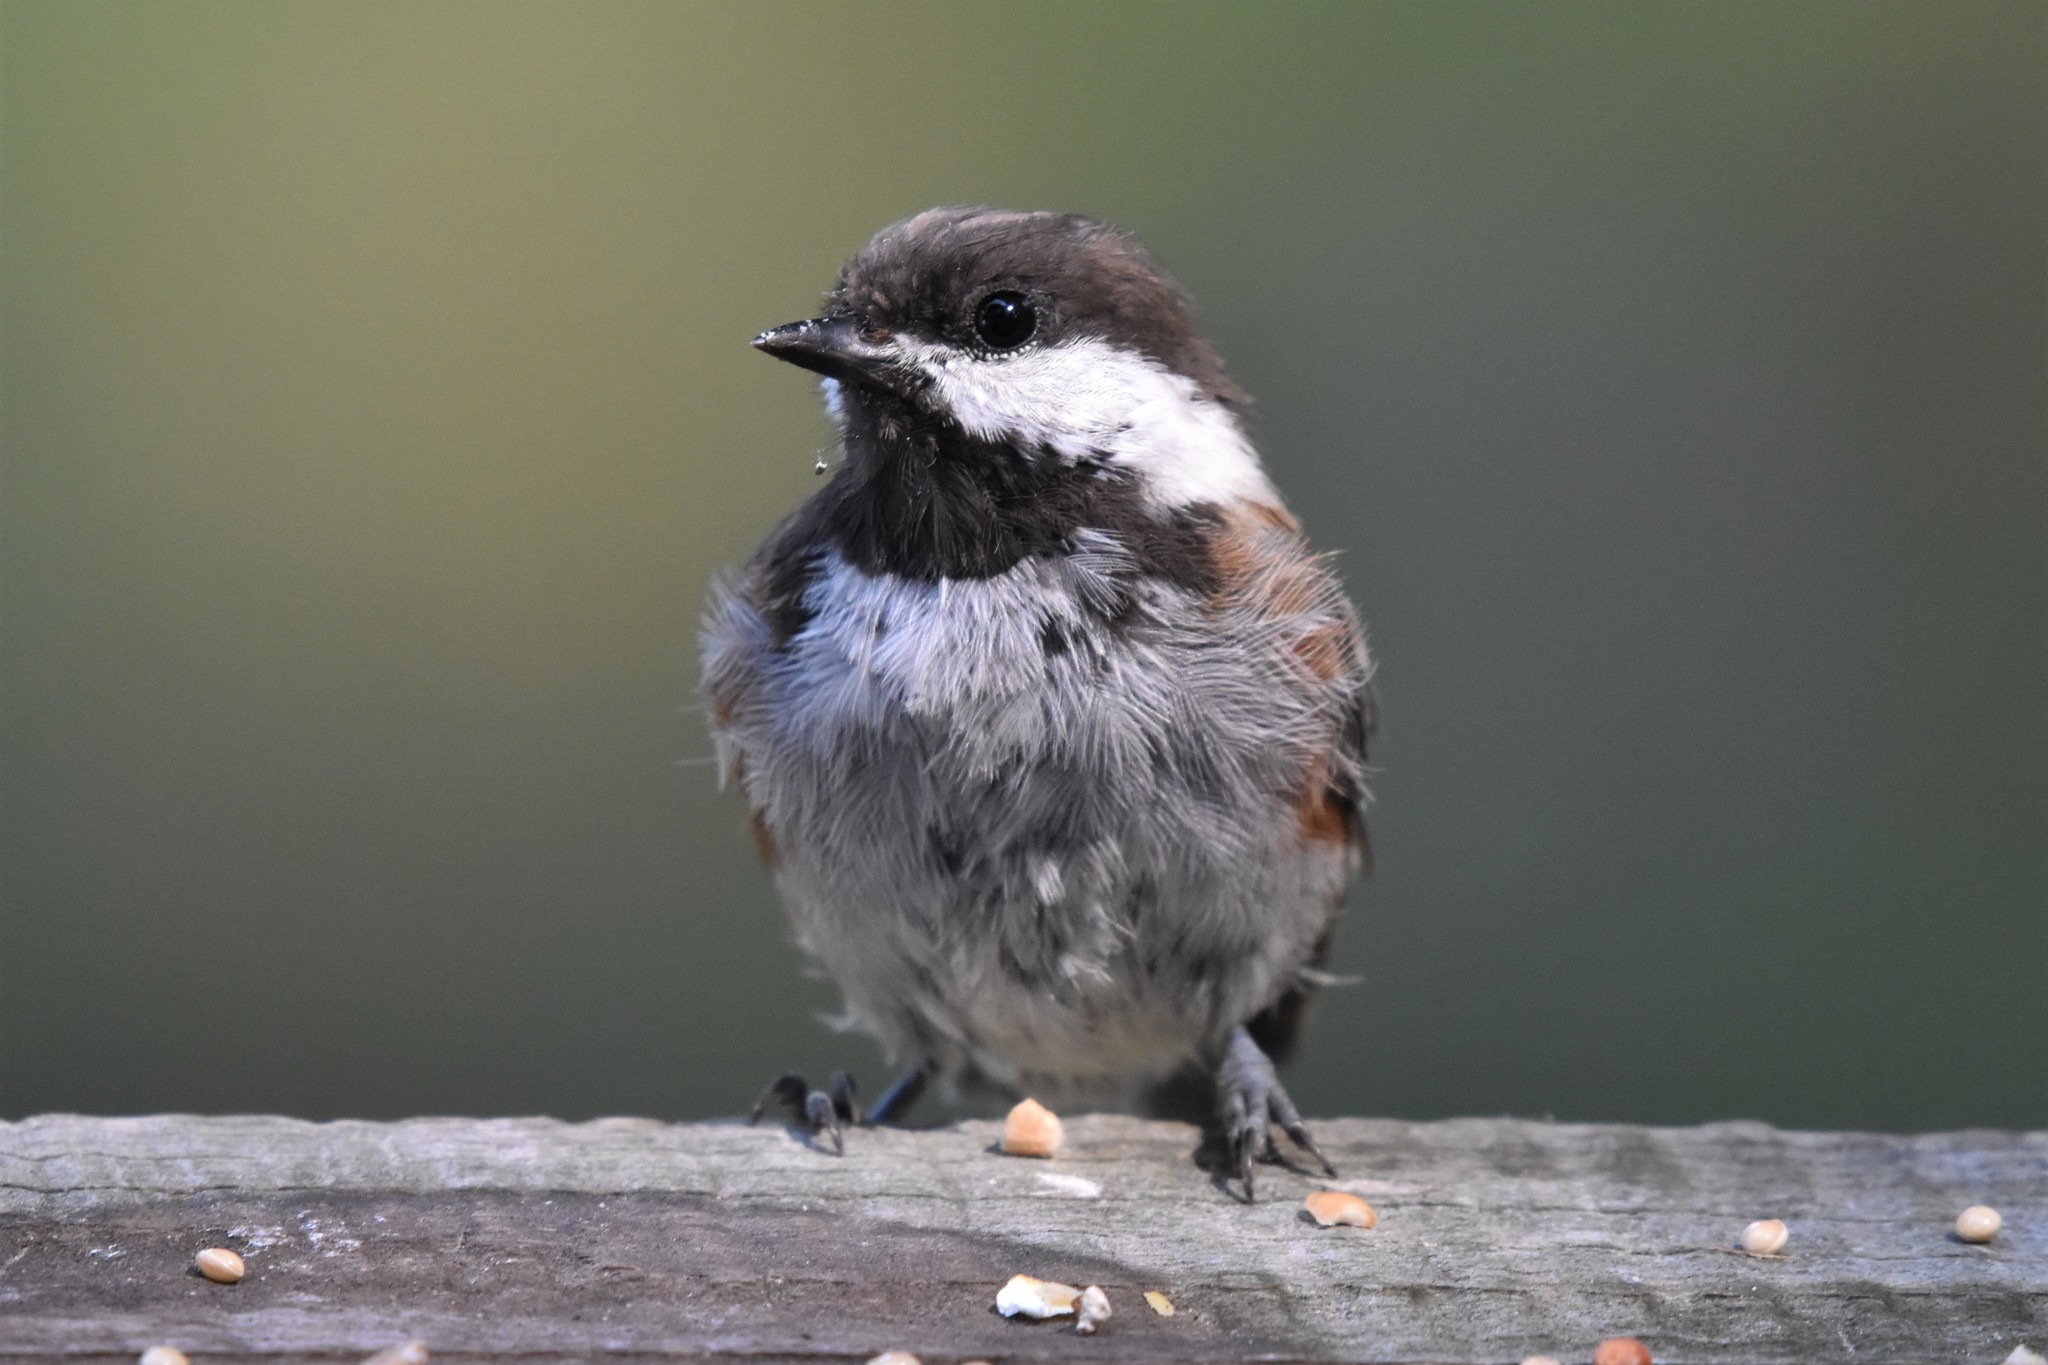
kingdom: Animalia
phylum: Chordata
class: Aves
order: Passeriformes
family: Paridae
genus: Poecile
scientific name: Poecile rufescens
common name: Chestnut-backed chickadee
